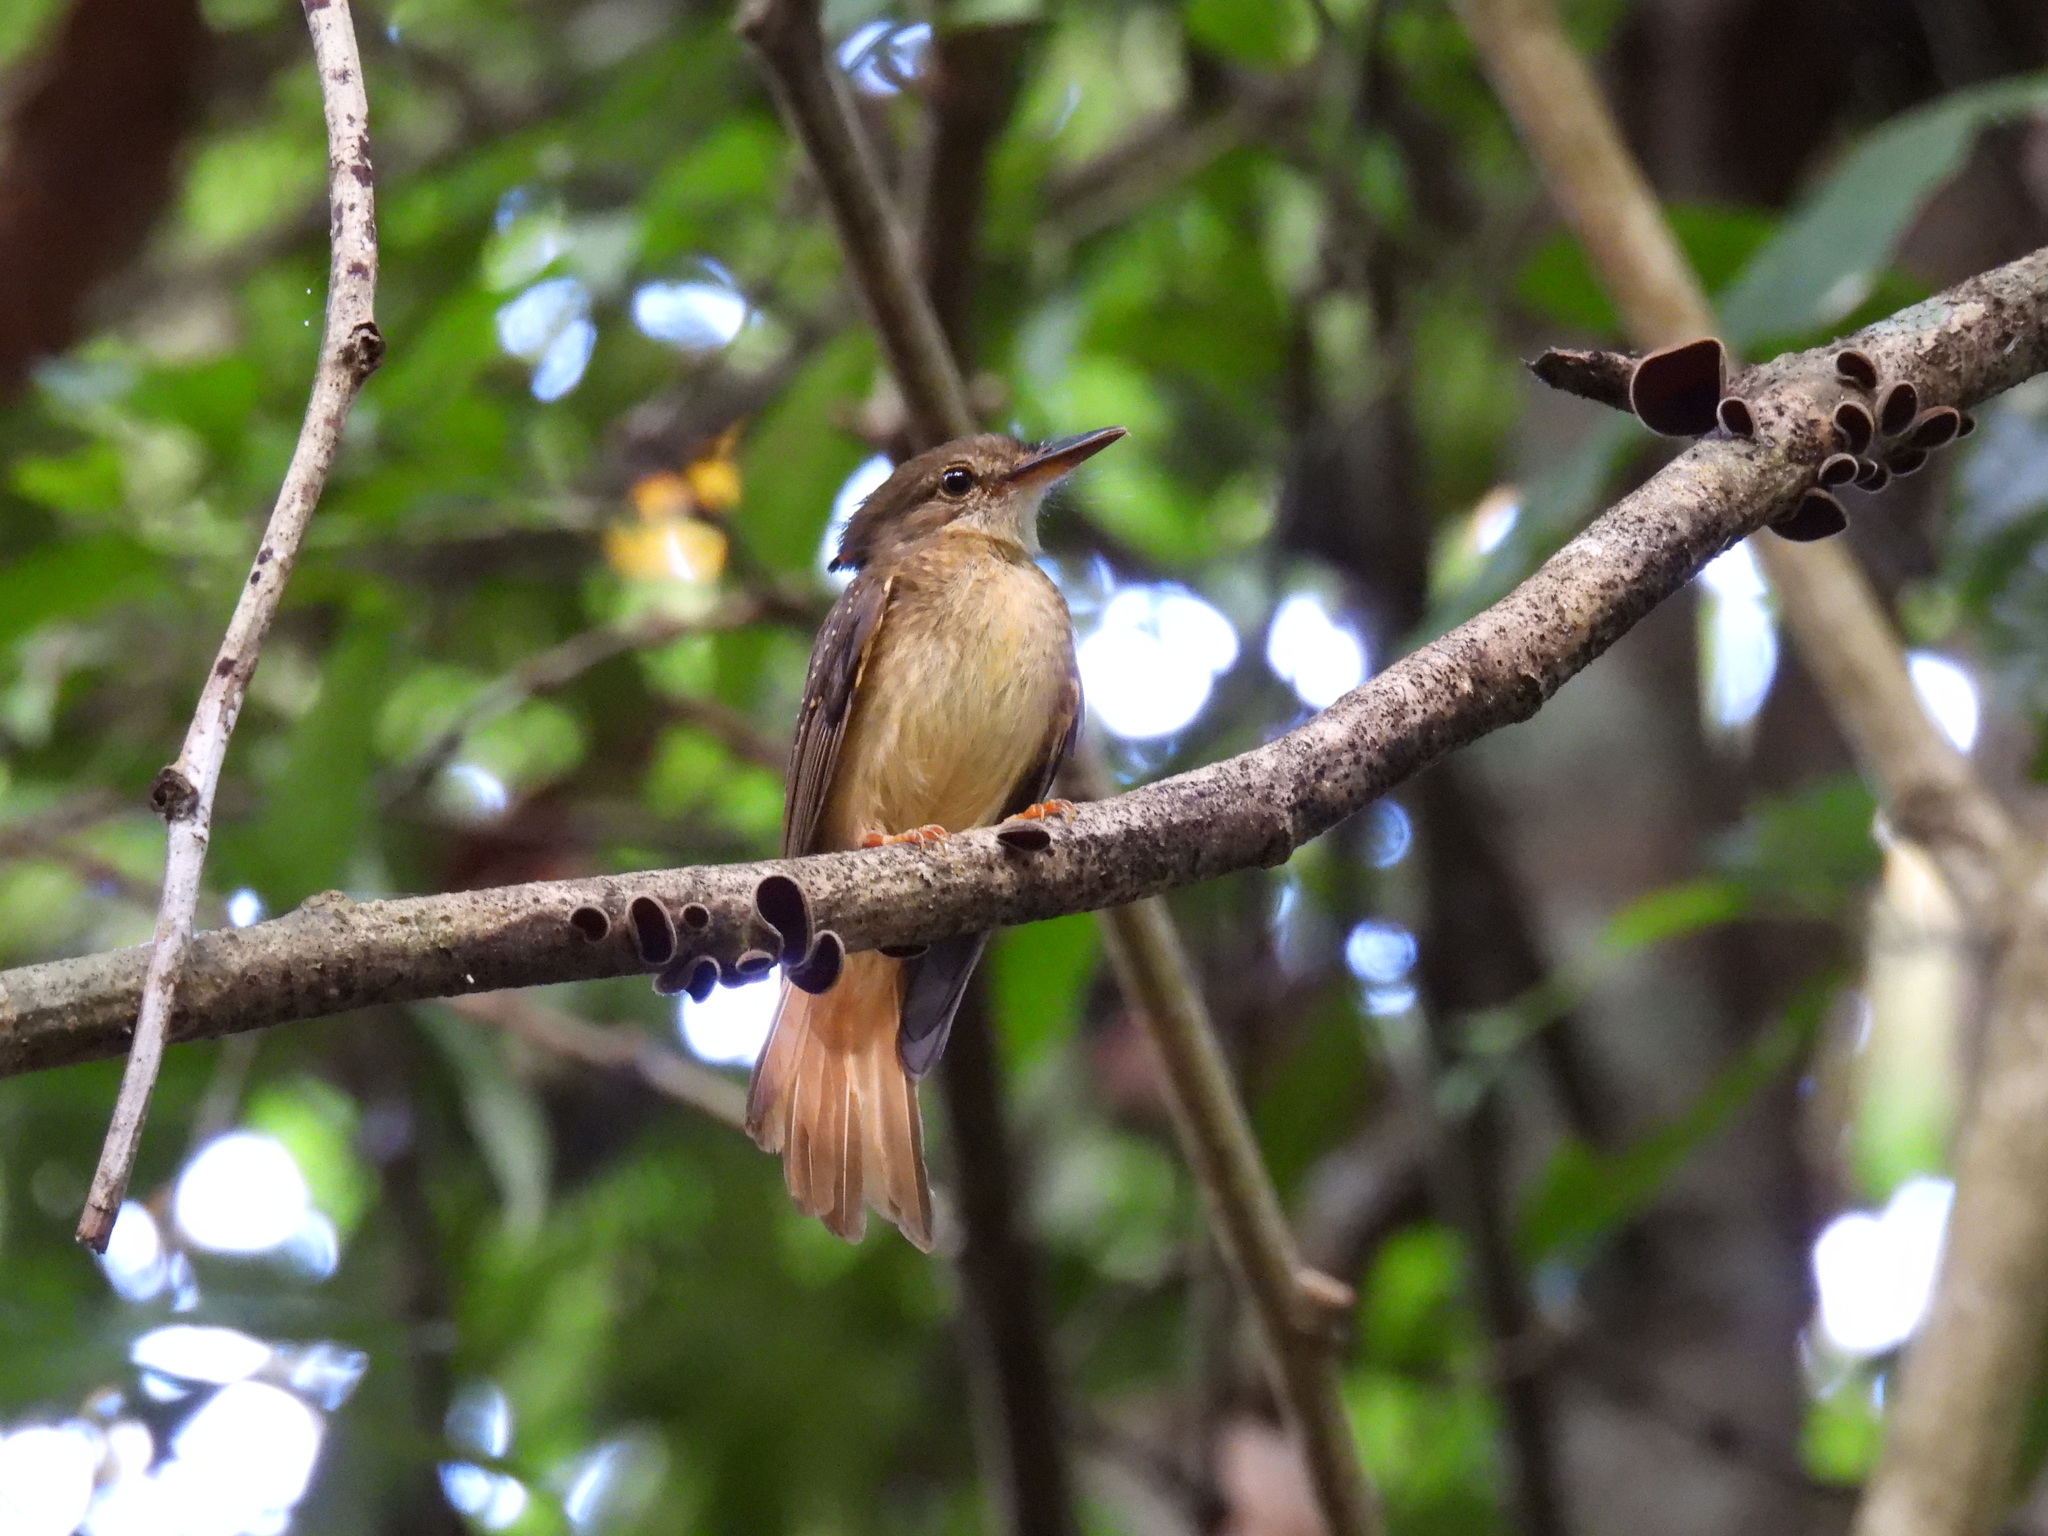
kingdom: Animalia
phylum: Chordata
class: Aves
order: Passeriformes
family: Tyrannidae
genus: Onychorhynchus
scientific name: Onychorhynchus coronatus
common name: Royal flycatcher
